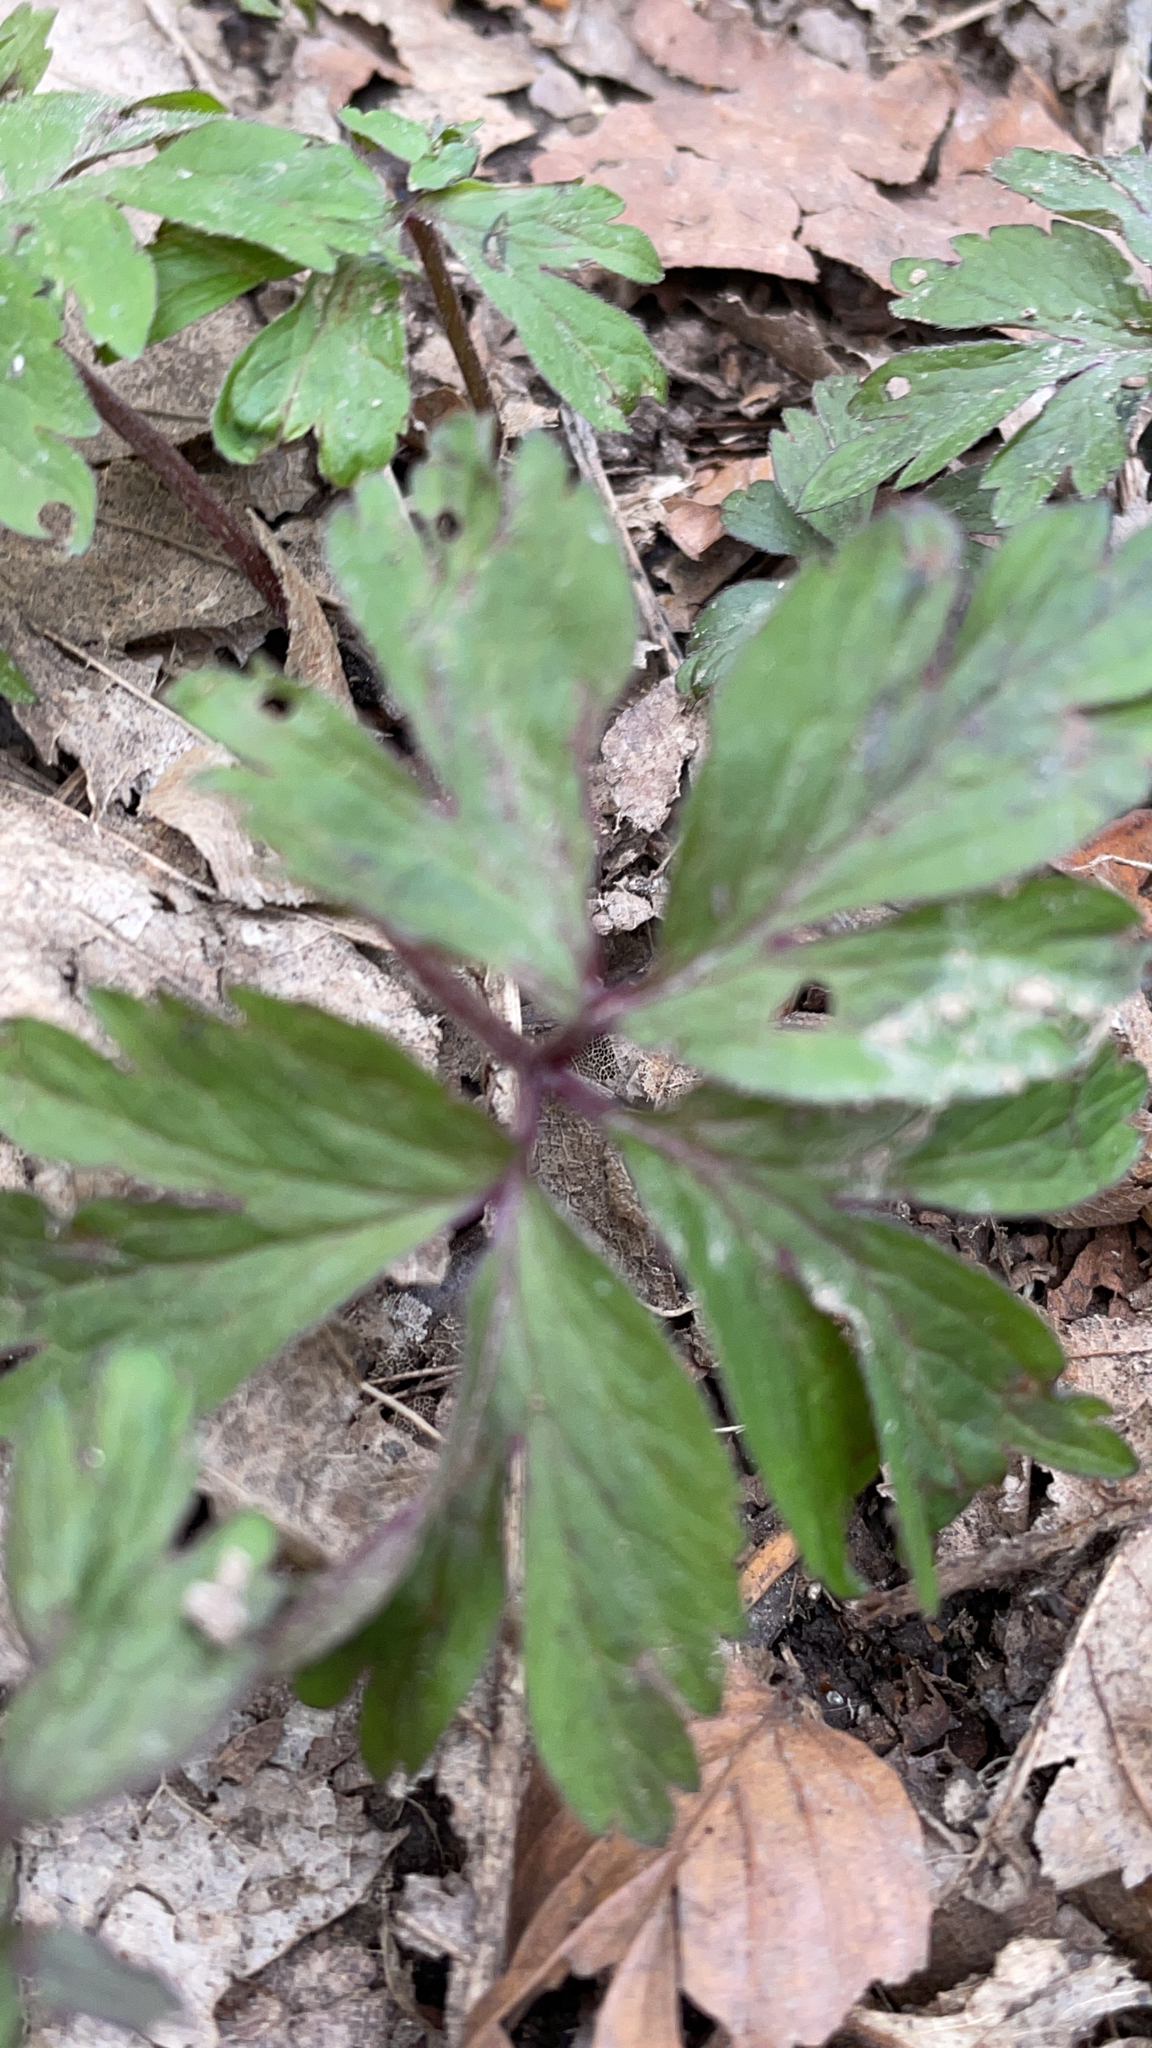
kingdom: Plantae
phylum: Tracheophyta
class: Magnoliopsida
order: Ranunculales
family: Ranunculaceae
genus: Anemone
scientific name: Anemone ranunculoides
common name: Yellow anemone
